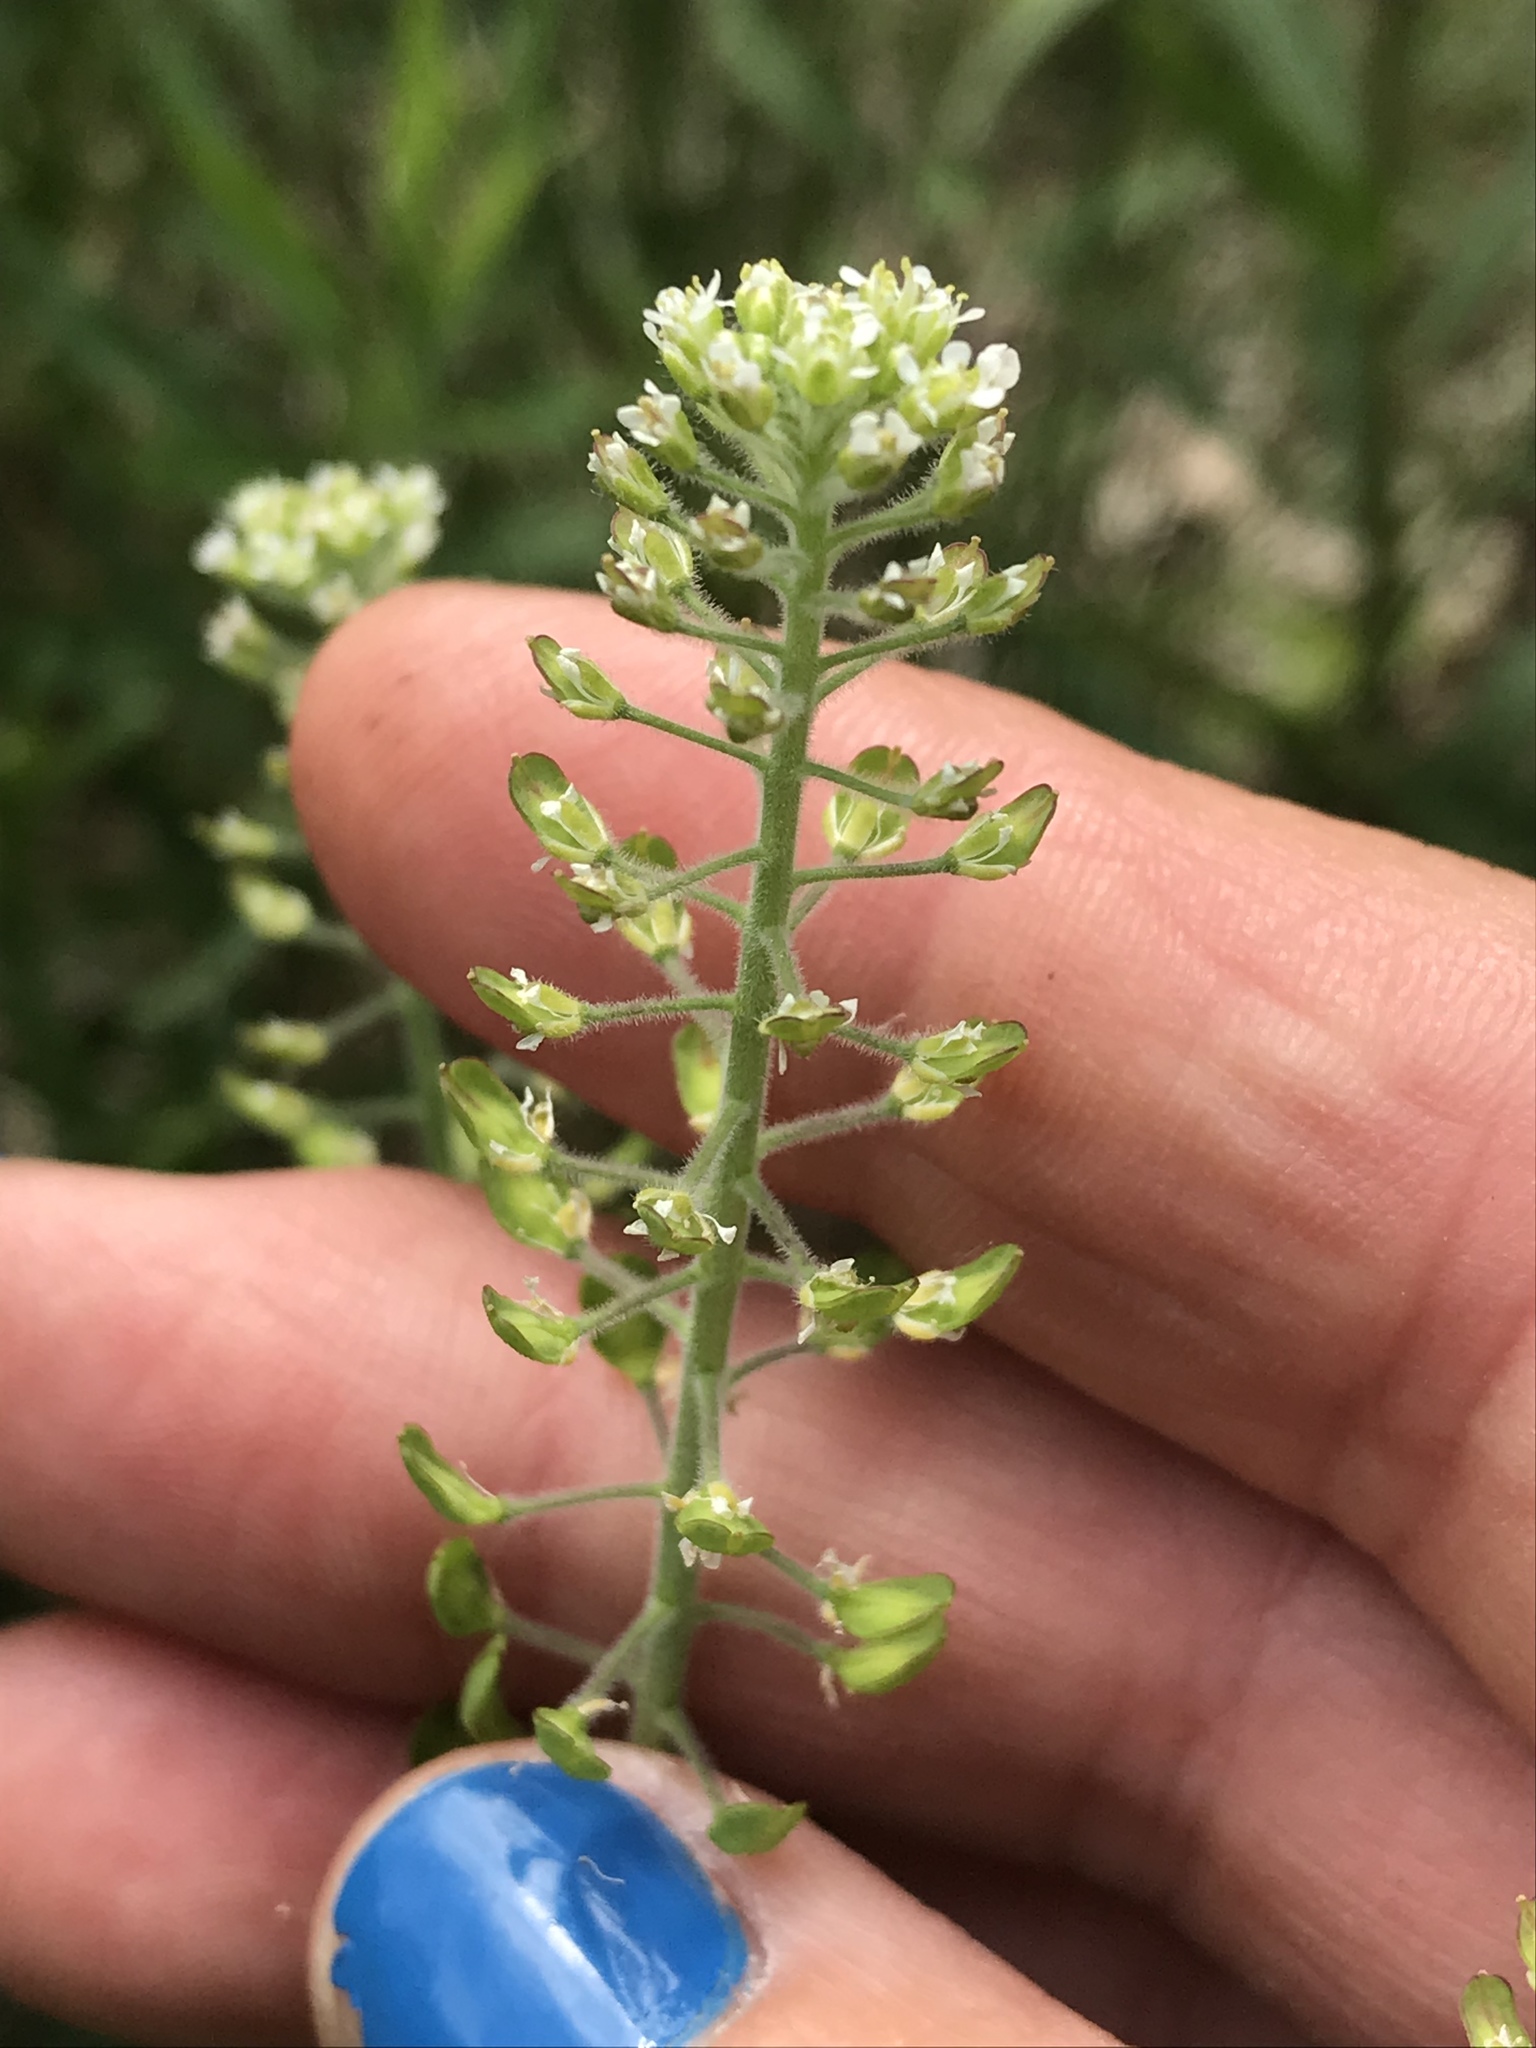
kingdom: Plantae
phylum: Tracheophyta
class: Magnoliopsida
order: Brassicales
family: Brassicaceae
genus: Lepidium
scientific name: Lepidium campestre
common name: Field pepperwort
